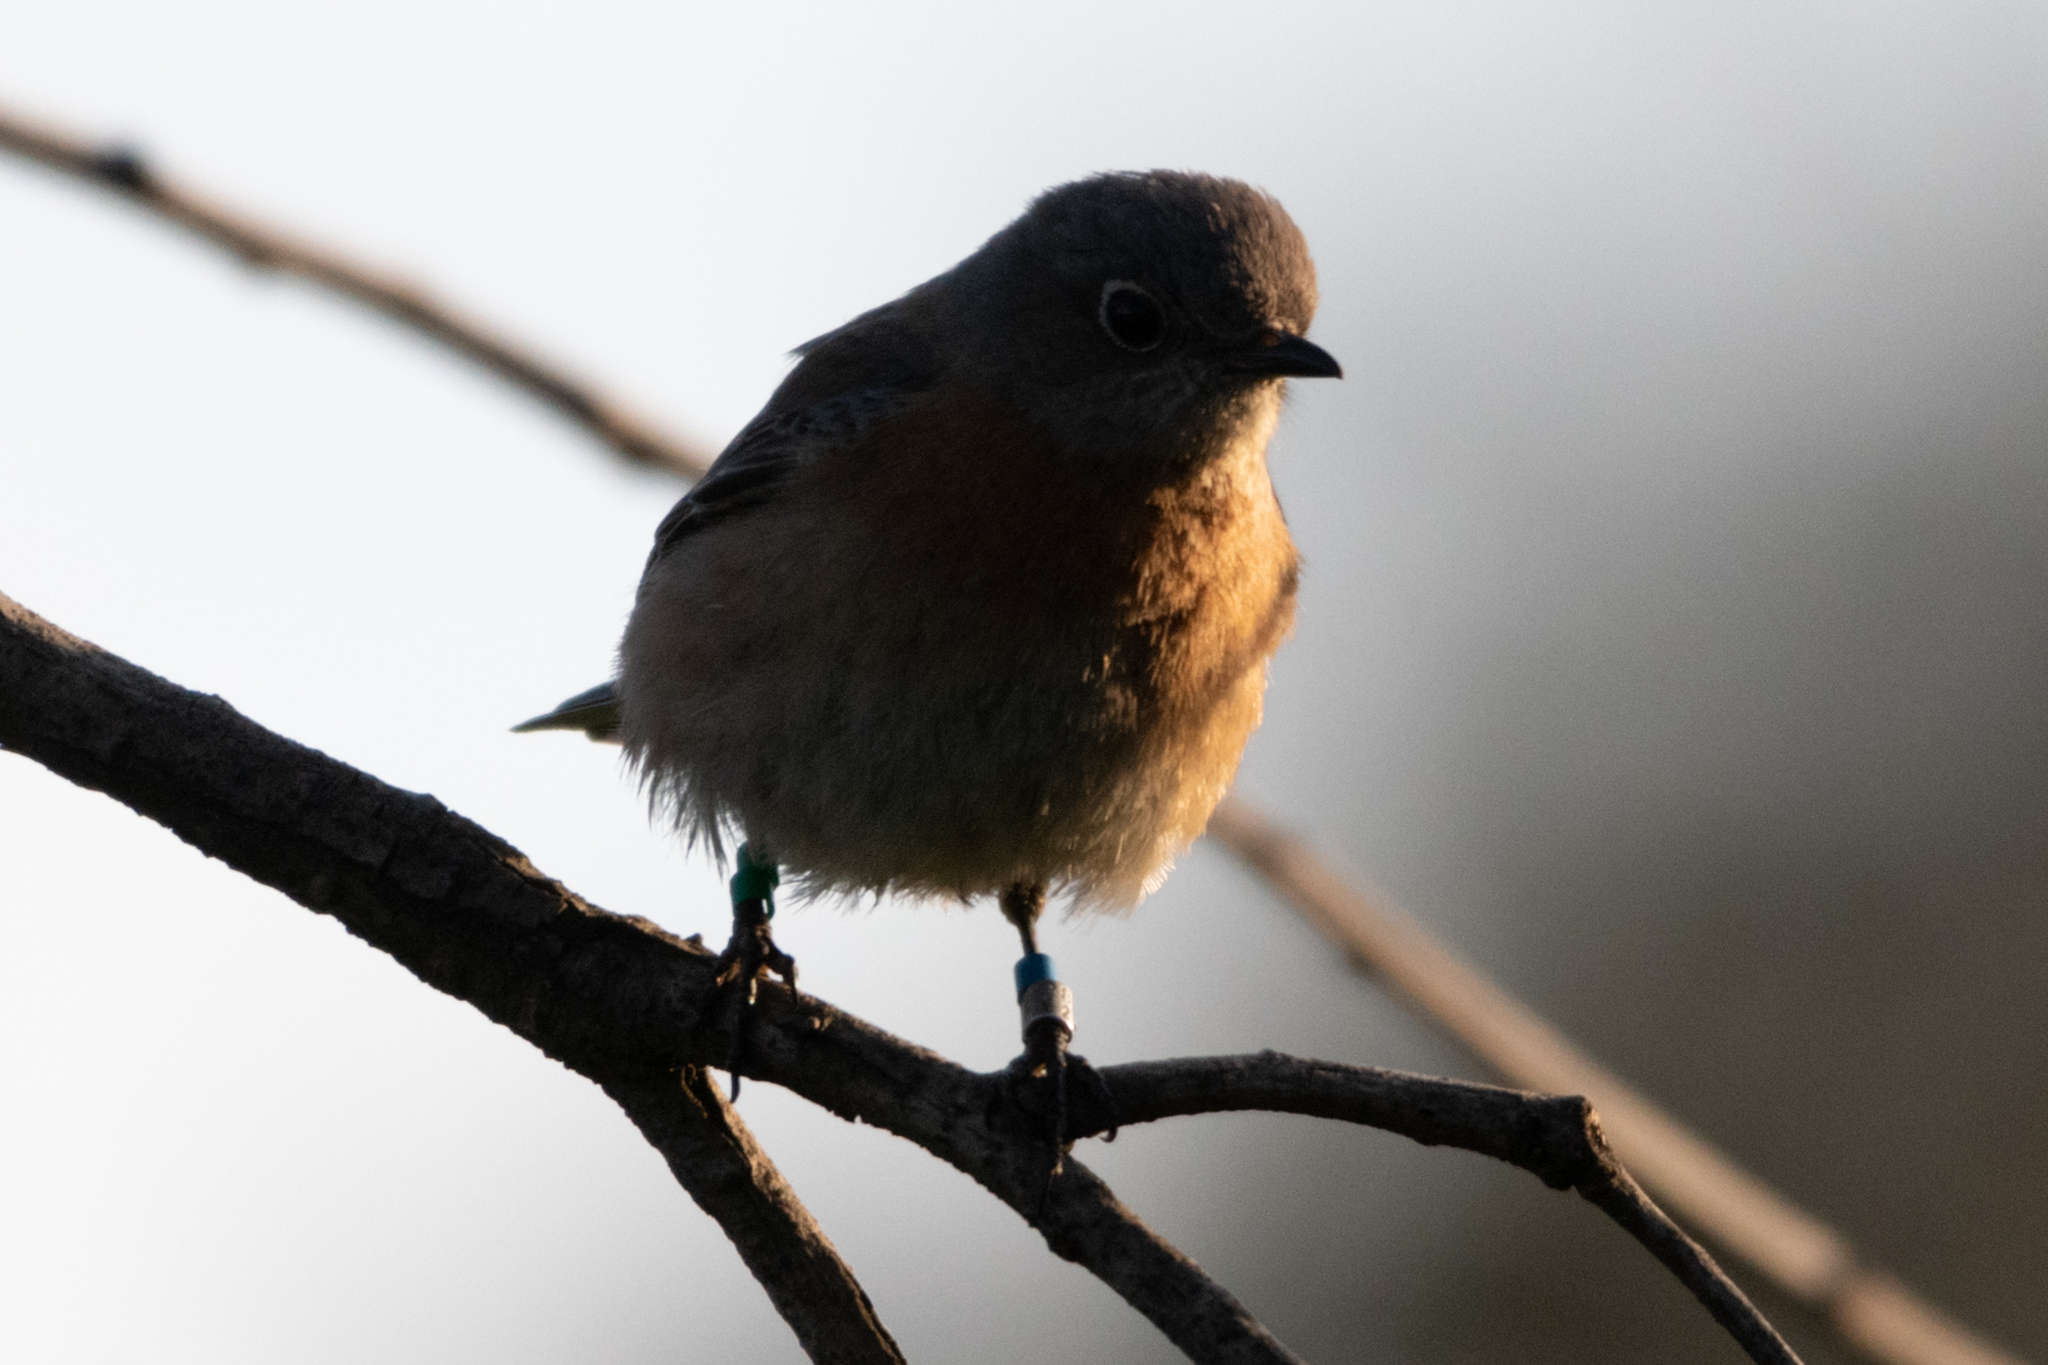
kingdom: Animalia
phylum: Chordata
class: Aves
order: Passeriformes
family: Turdidae
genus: Sialia
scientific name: Sialia mexicana
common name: Western bluebird
